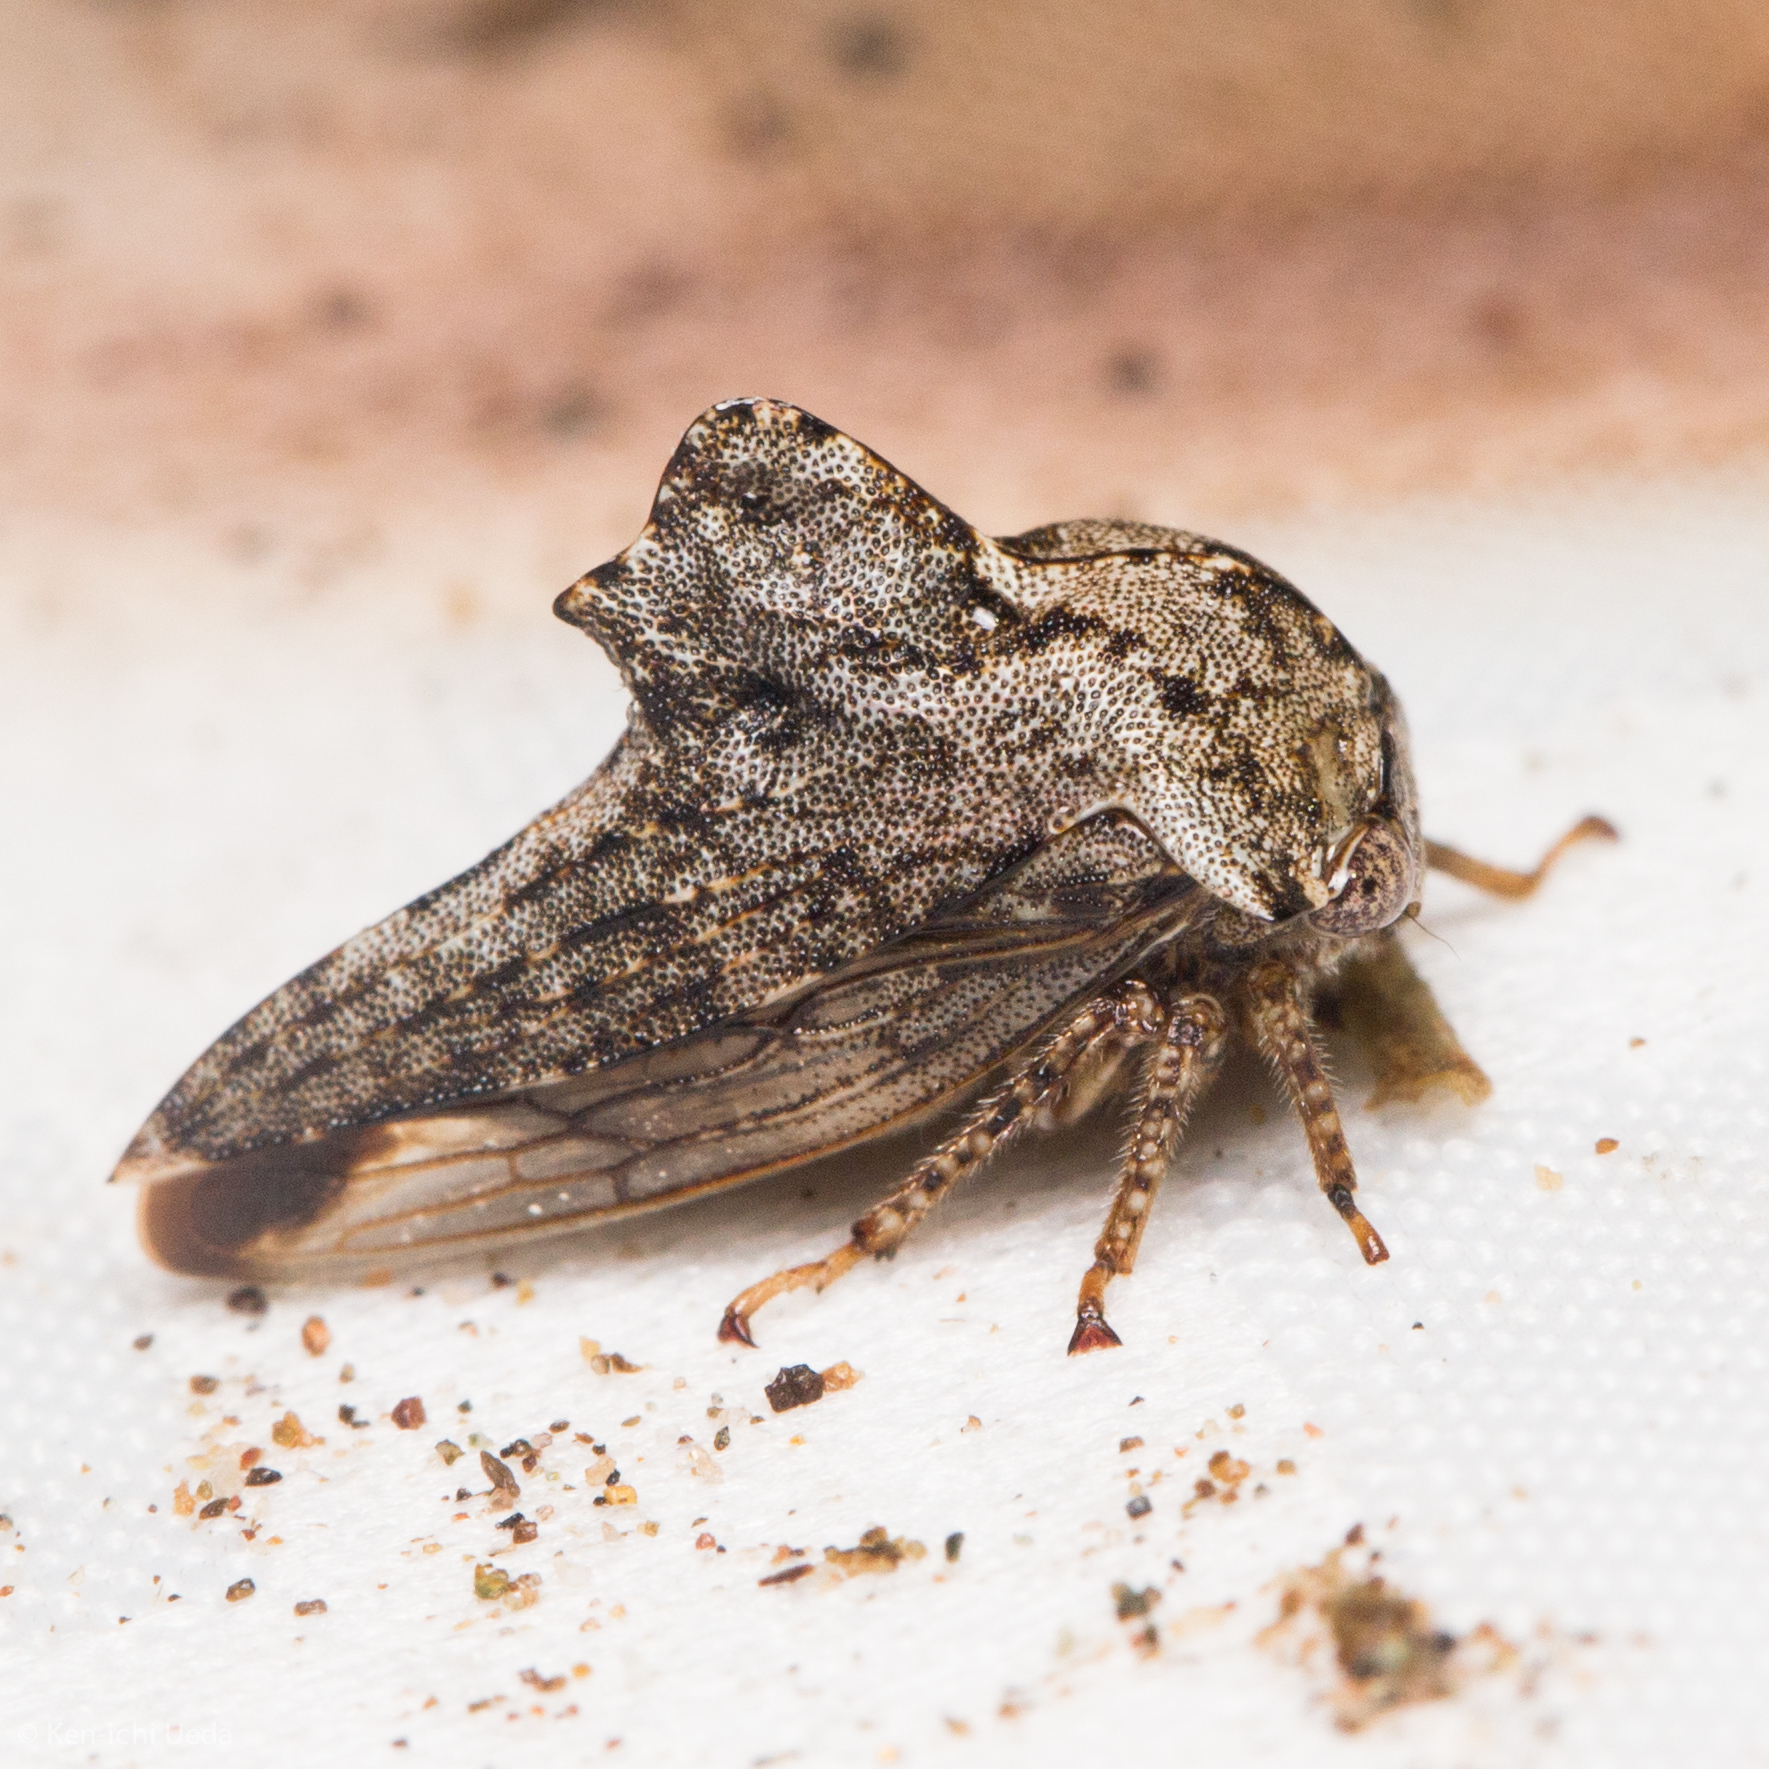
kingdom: Animalia
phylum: Arthropoda
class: Insecta
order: Hemiptera
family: Membracidae
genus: Heliria
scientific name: Heliria clitella
